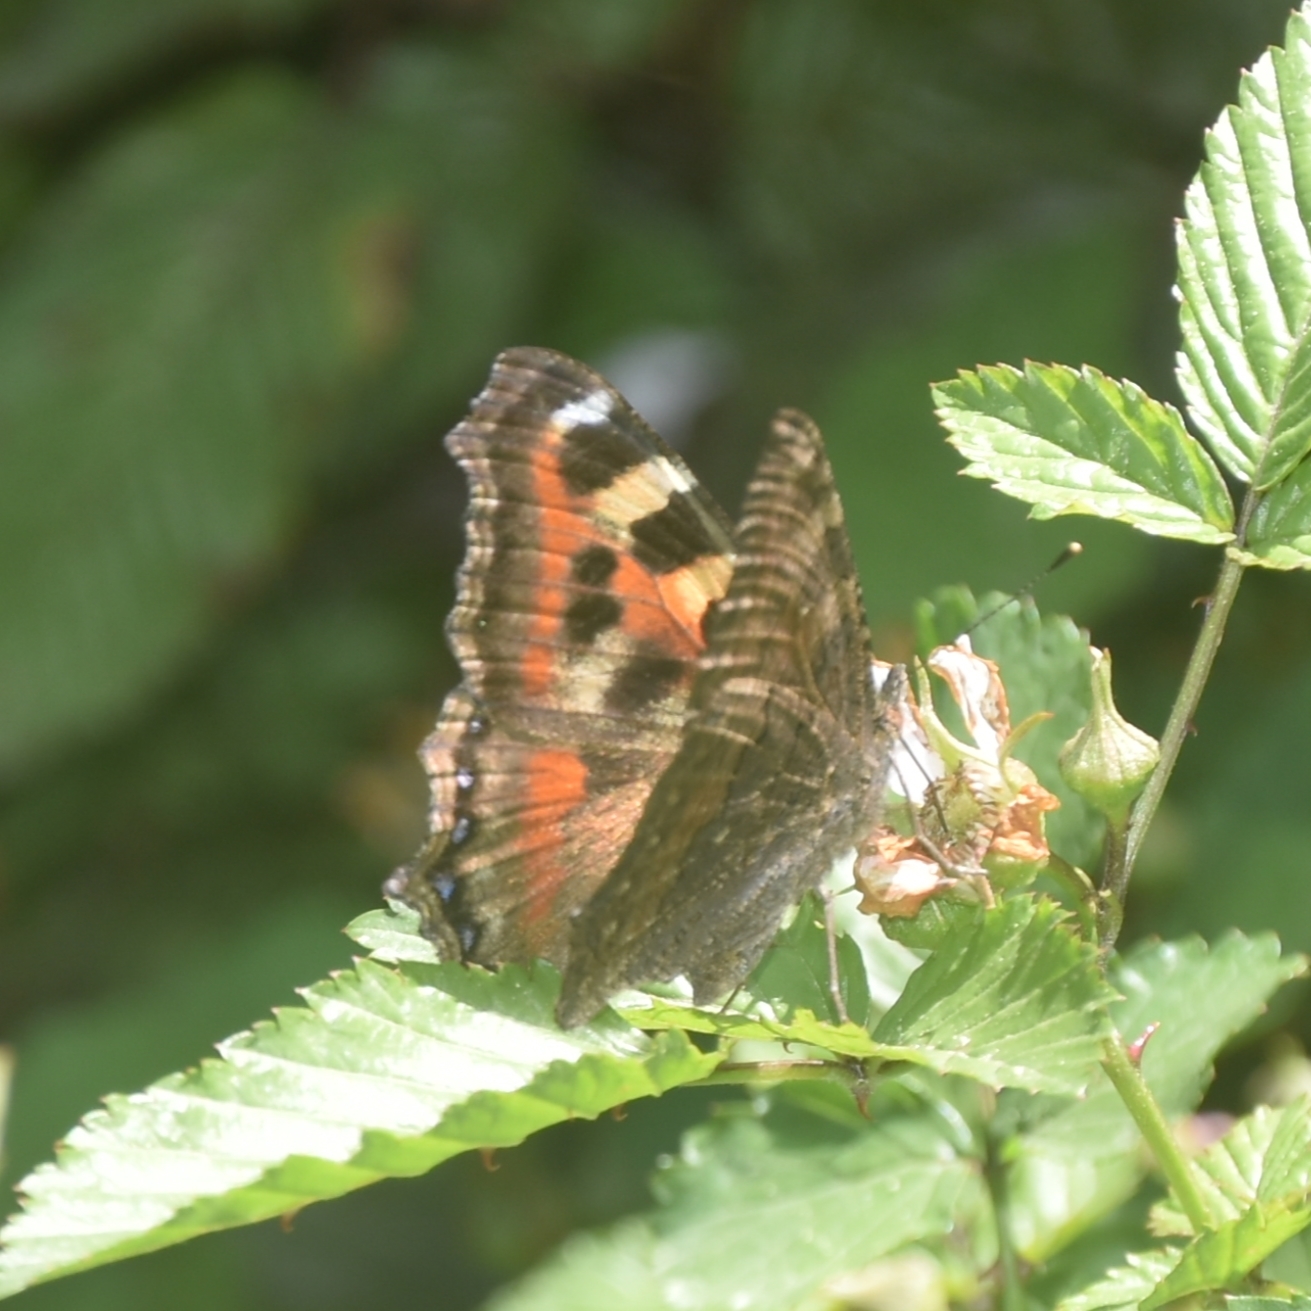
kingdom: Animalia
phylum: Arthropoda
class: Insecta
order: Lepidoptera
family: Nymphalidae
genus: Aglais
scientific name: Aglais caschmirensis
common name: Indian tortoiseshell
